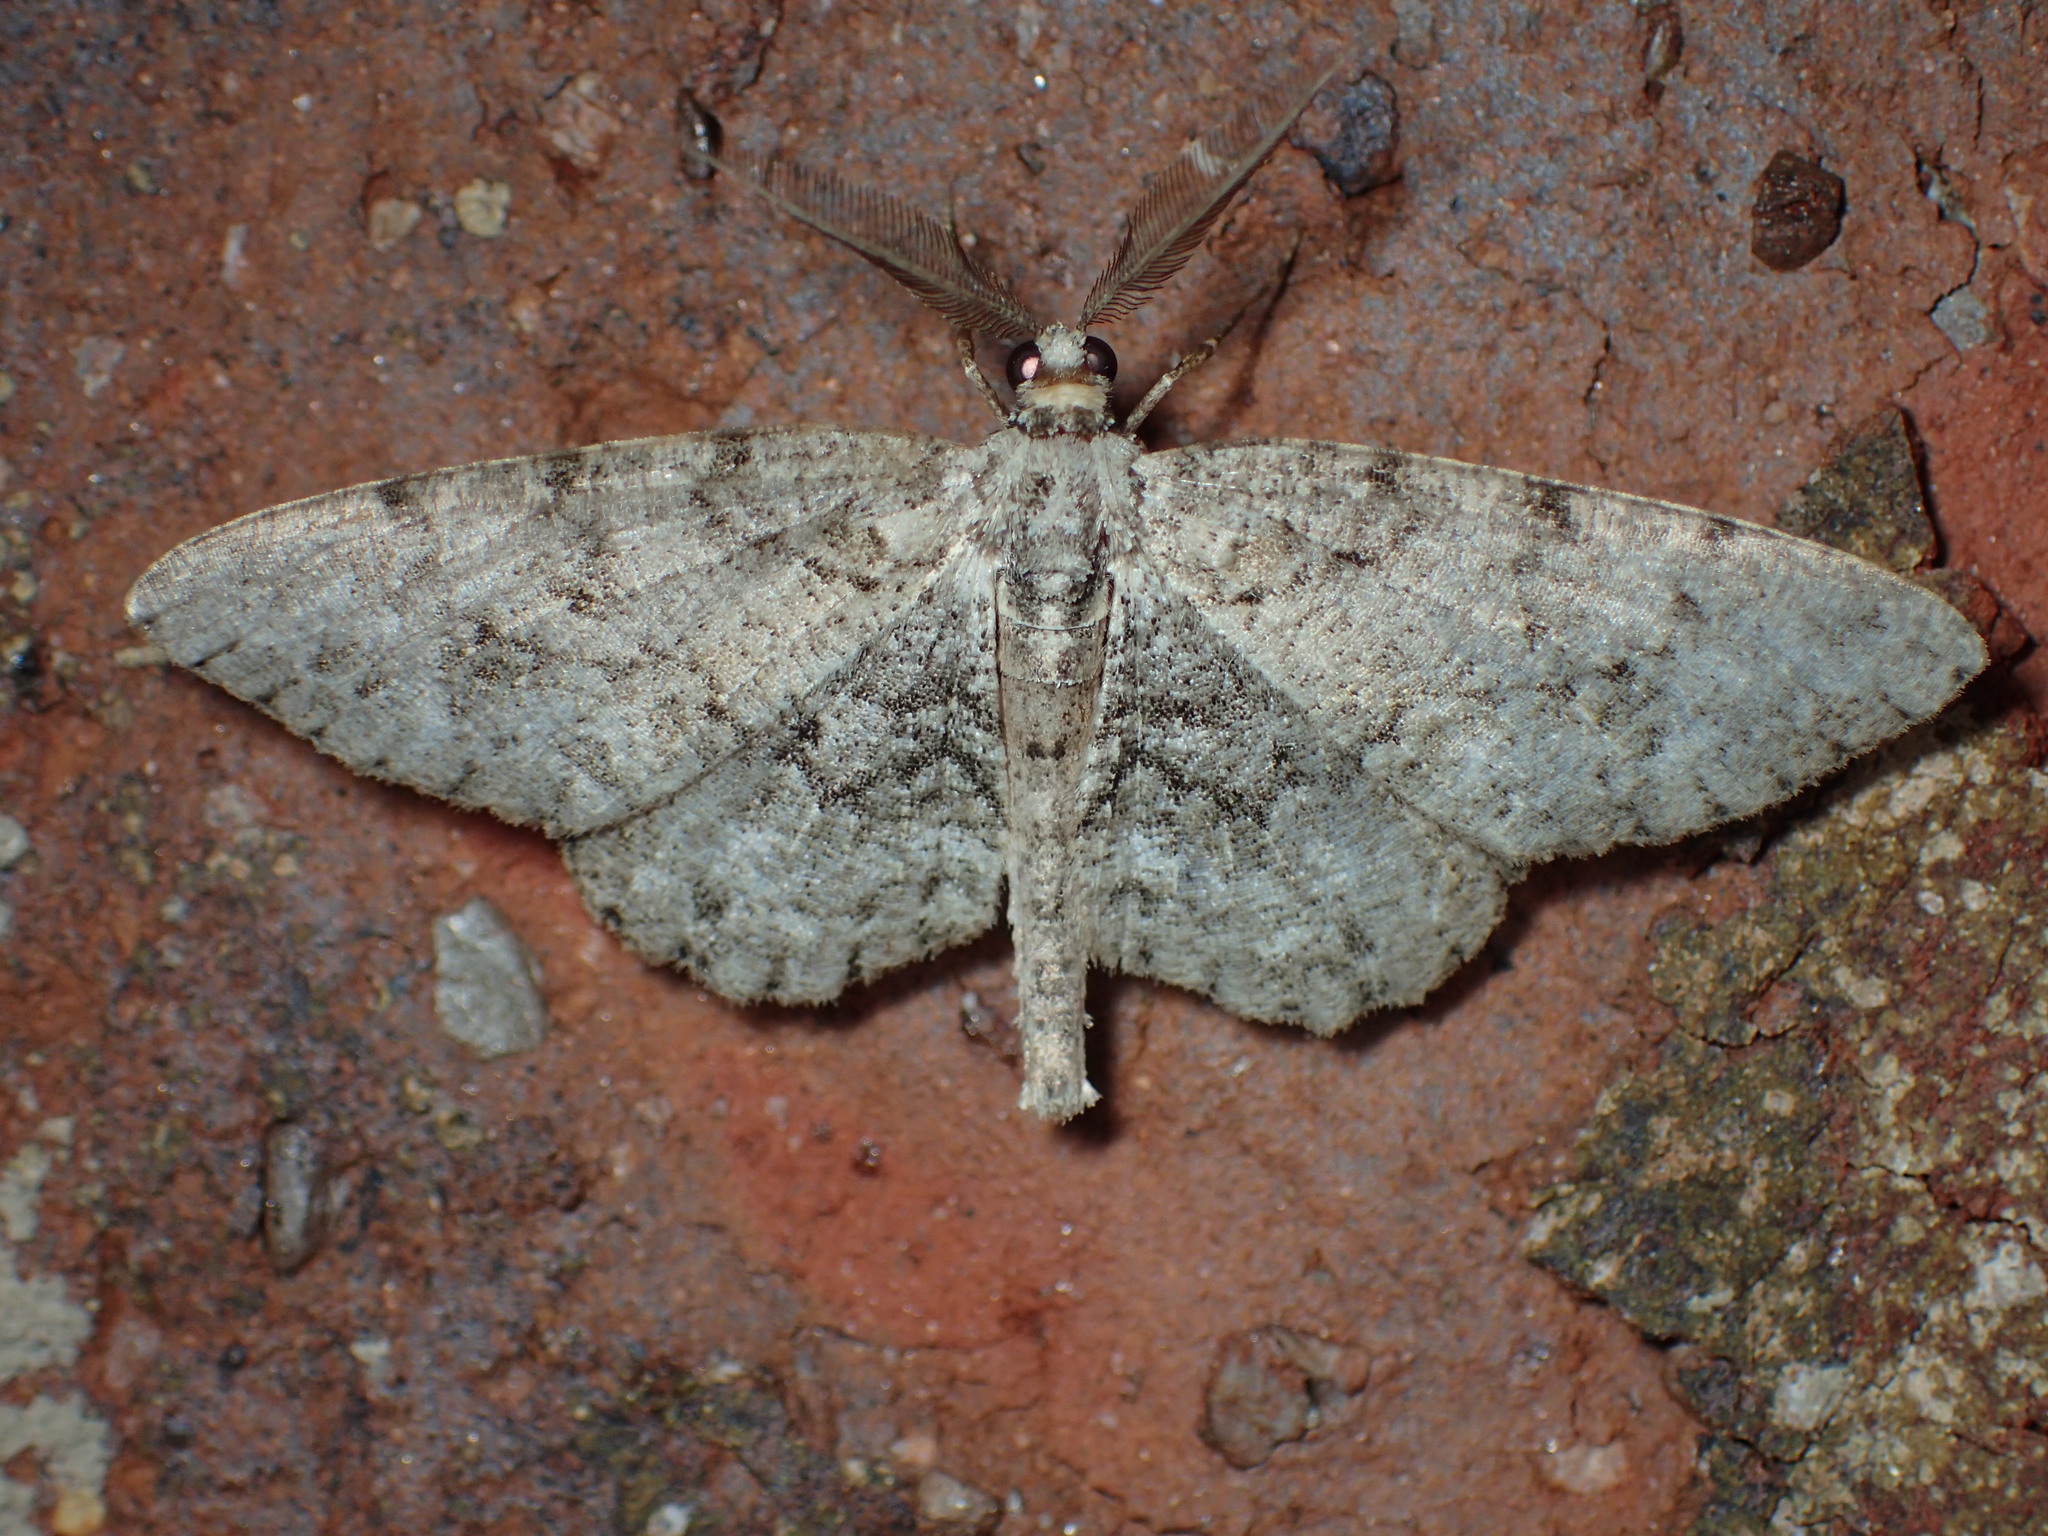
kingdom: Animalia
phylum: Arthropoda
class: Insecta
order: Lepidoptera
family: Geometridae
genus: Protoboarmia
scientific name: Protoboarmia porcelaria
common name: Porcelain gray
